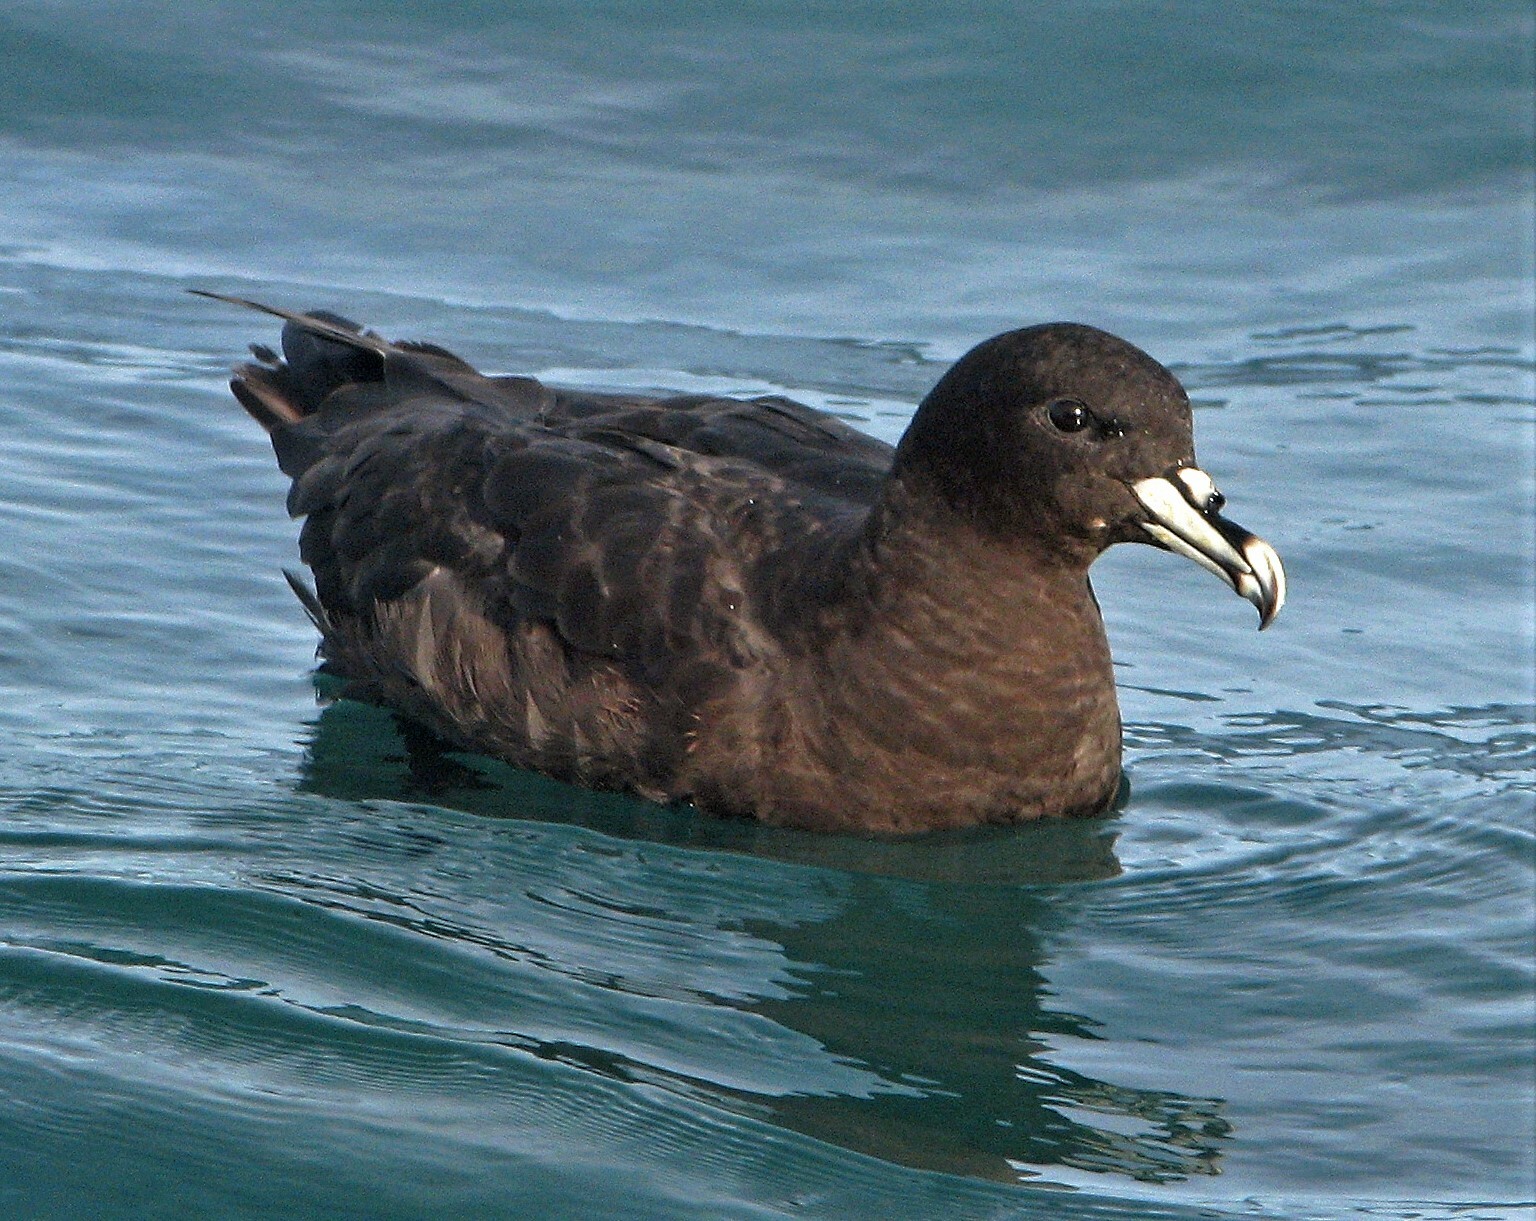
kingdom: Animalia
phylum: Chordata
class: Aves
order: Procellariiformes
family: Procellariidae
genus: Procellaria
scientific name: Procellaria aequinoctialis
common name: White-chinned petrel
